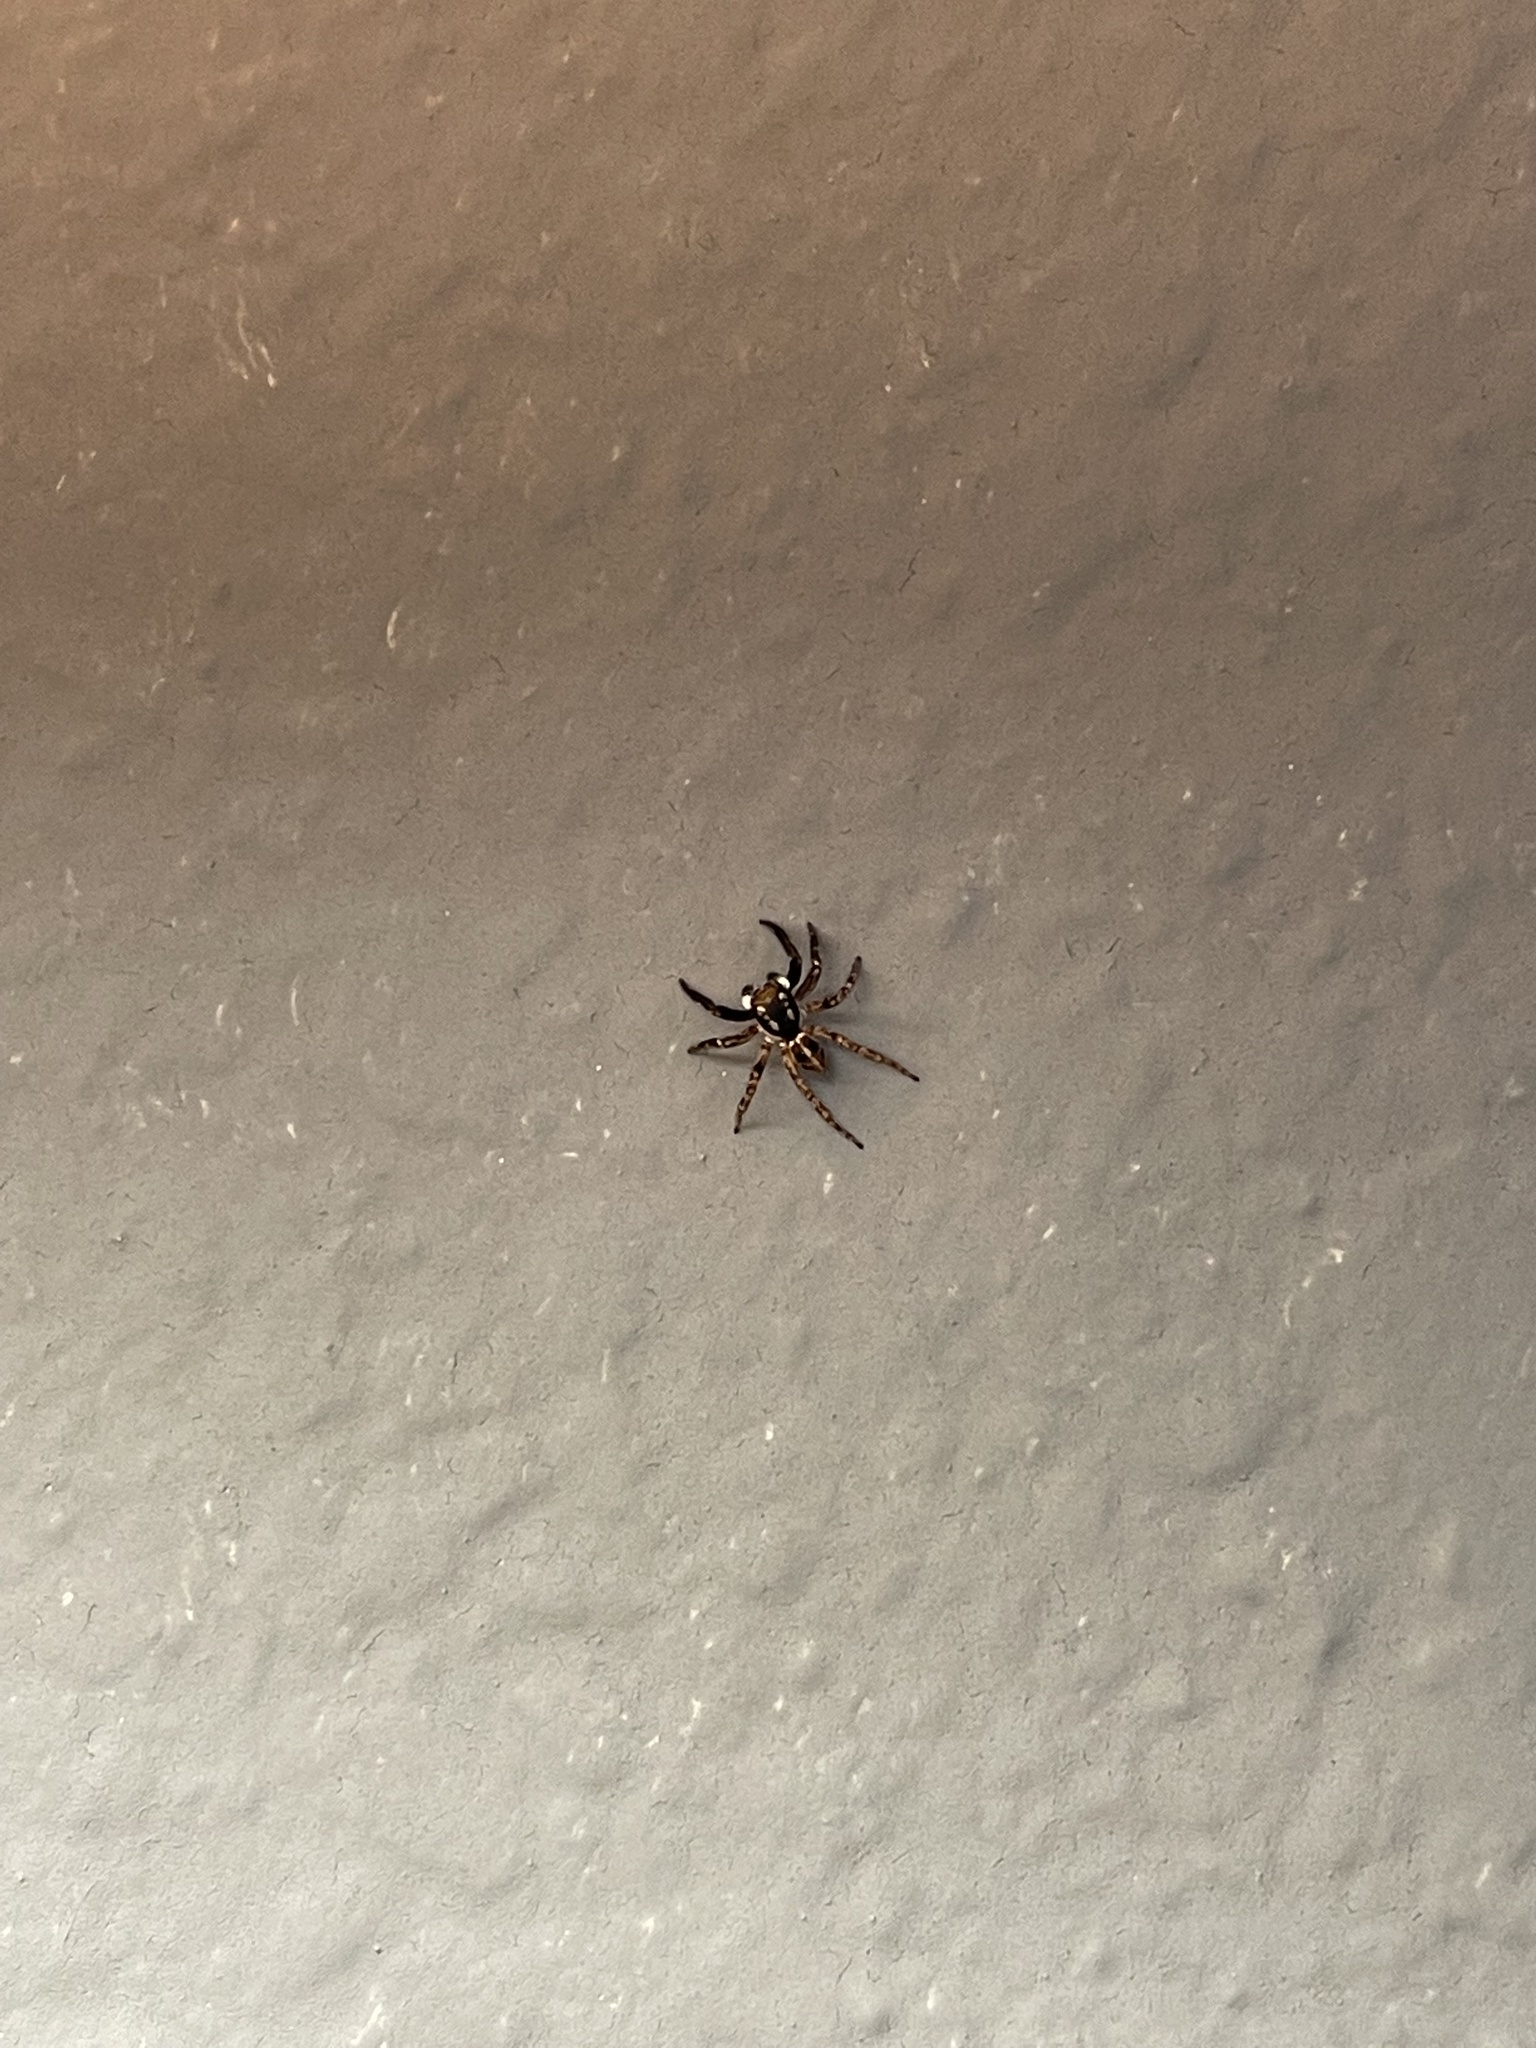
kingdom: Animalia
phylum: Arthropoda
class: Arachnida
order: Araneae
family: Salticidae
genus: Anasaitis
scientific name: Anasaitis canosa
